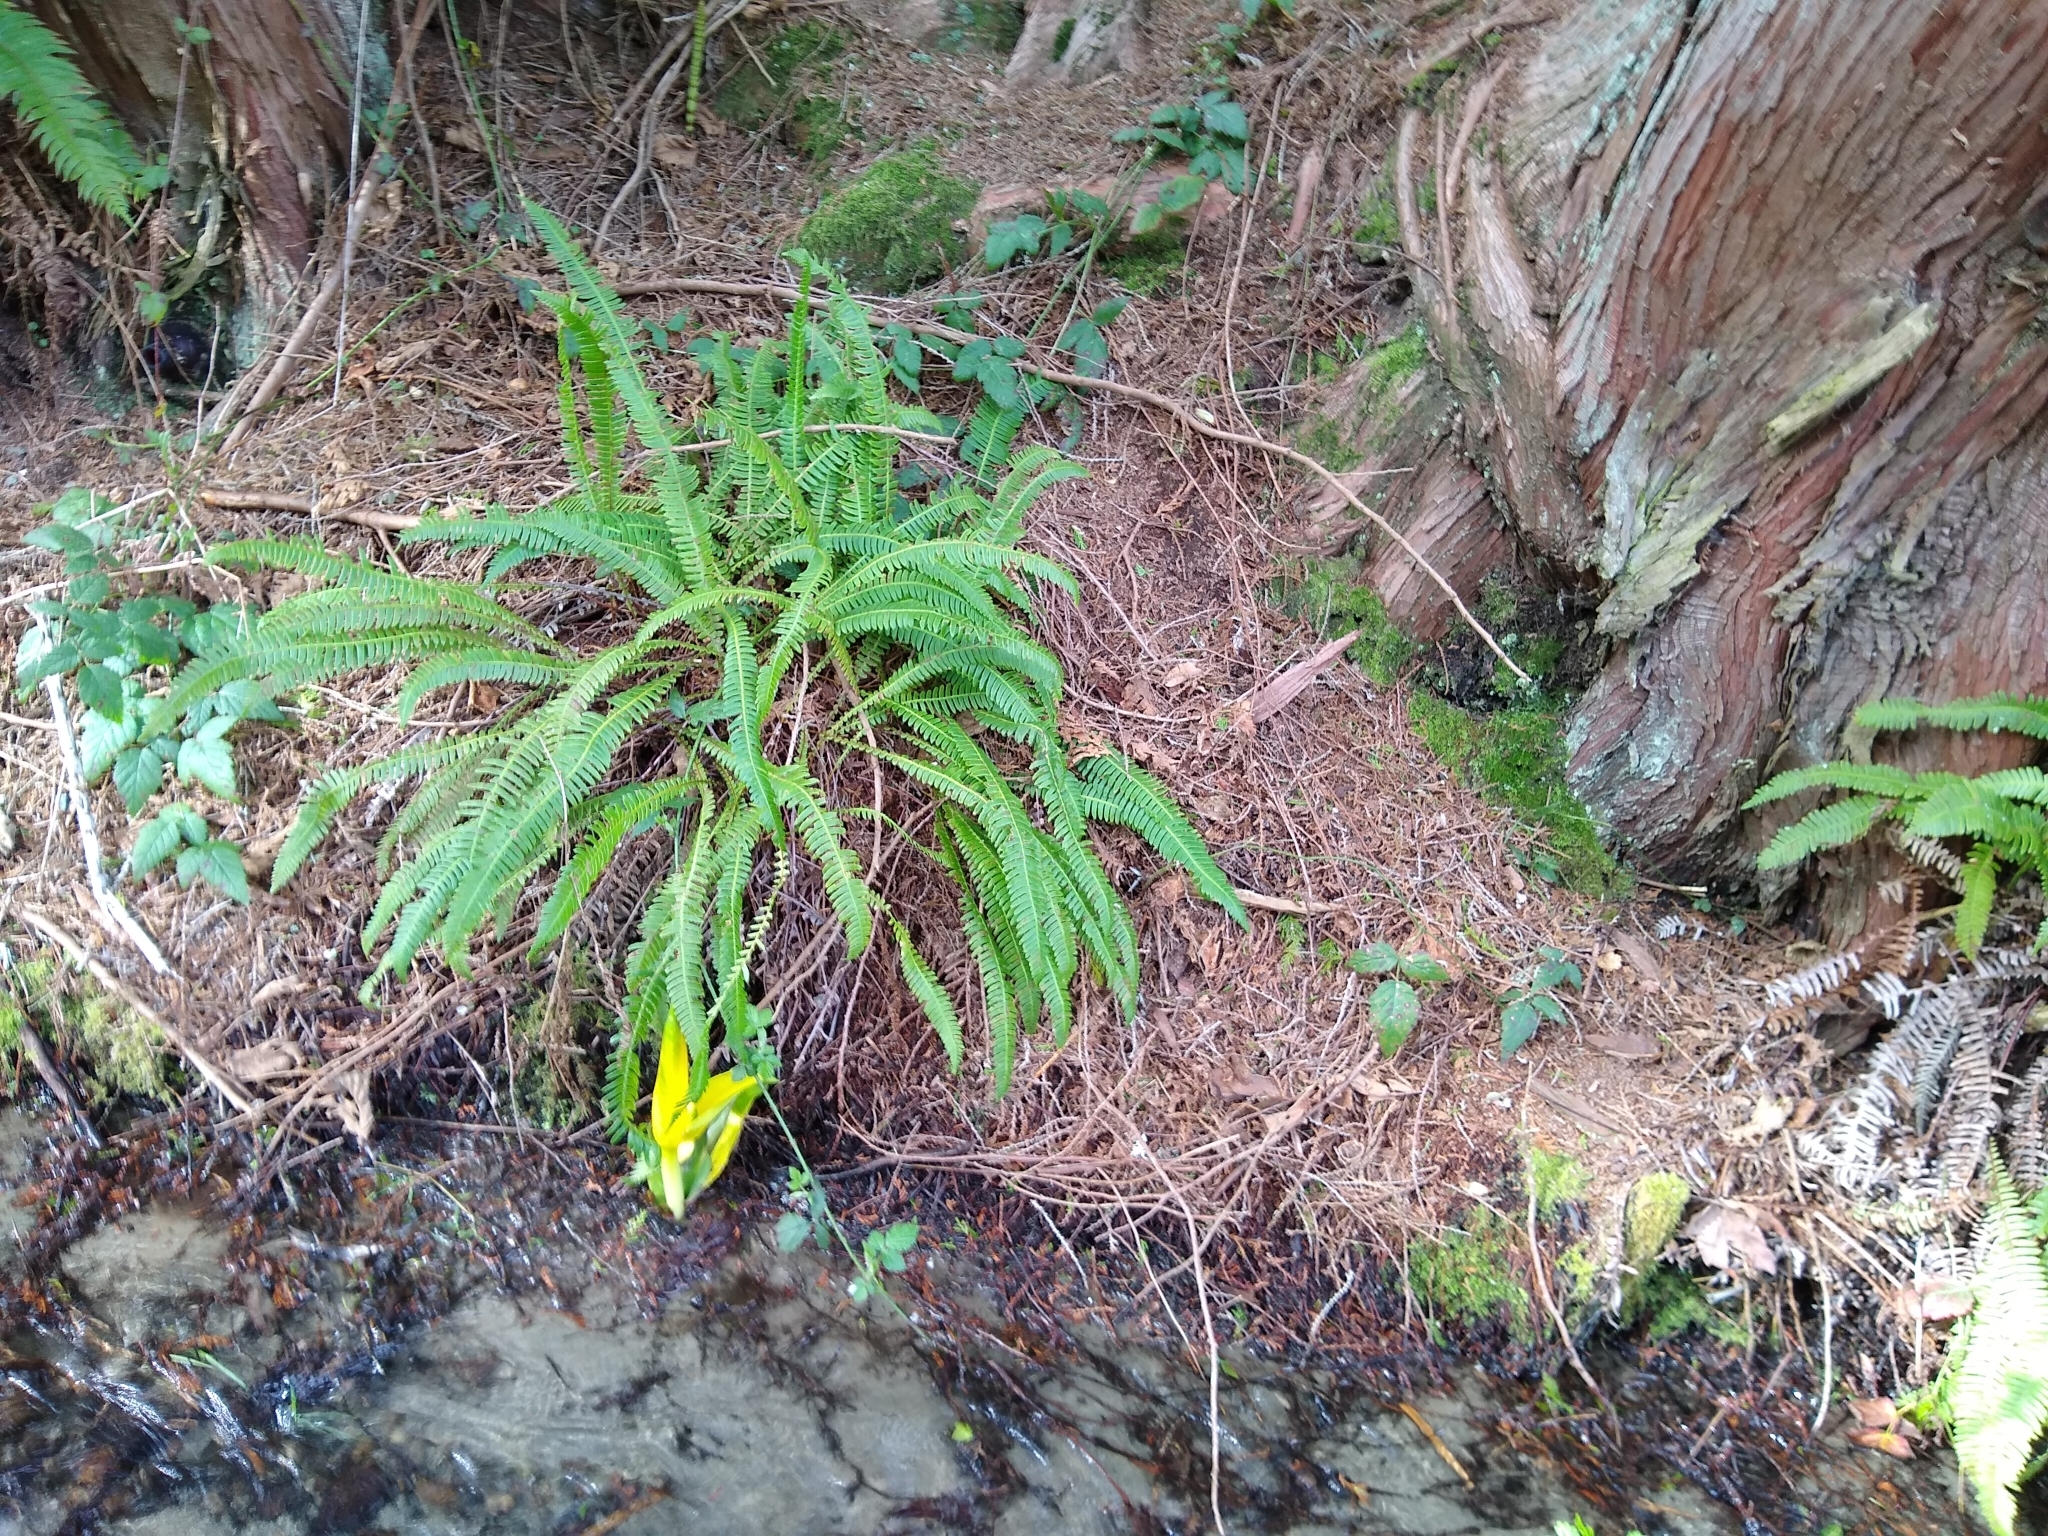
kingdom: Plantae
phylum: Tracheophyta
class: Polypodiopsida
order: Polypodiales
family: Blechnaceae
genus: Struthiopteris
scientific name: Struthiopteris spicant
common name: Deer fern
